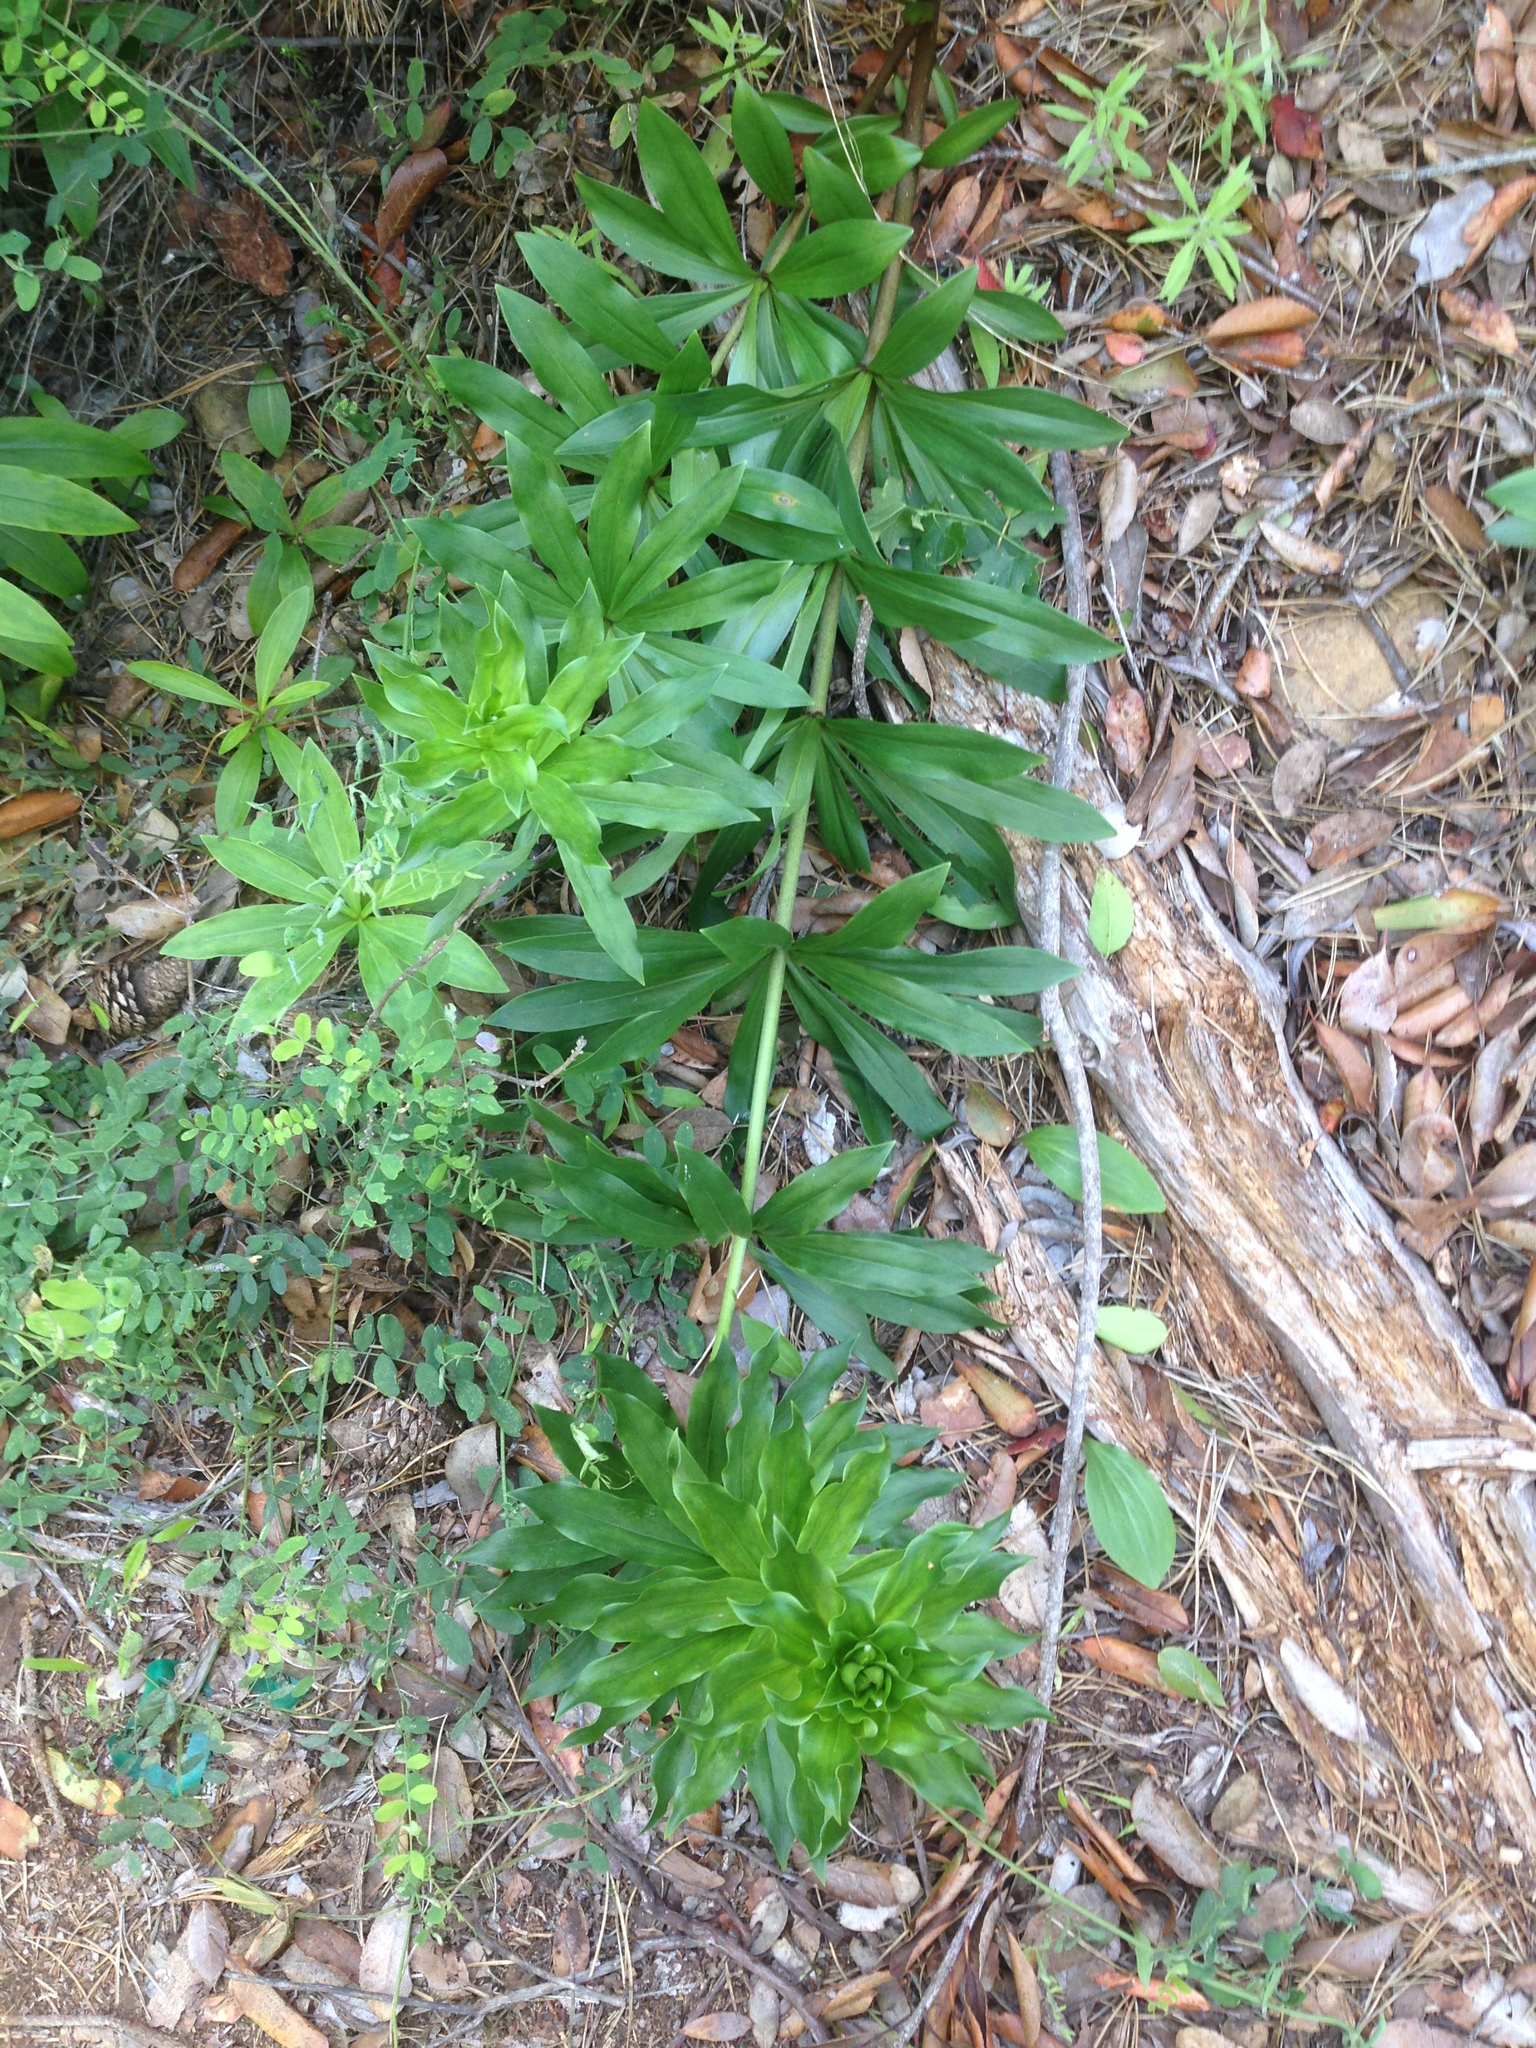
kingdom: Plantae
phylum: Tracheophyta
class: Liliopsida
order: Liliales
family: Liliaceae
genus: Lilium
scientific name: Lilium humboldtii
